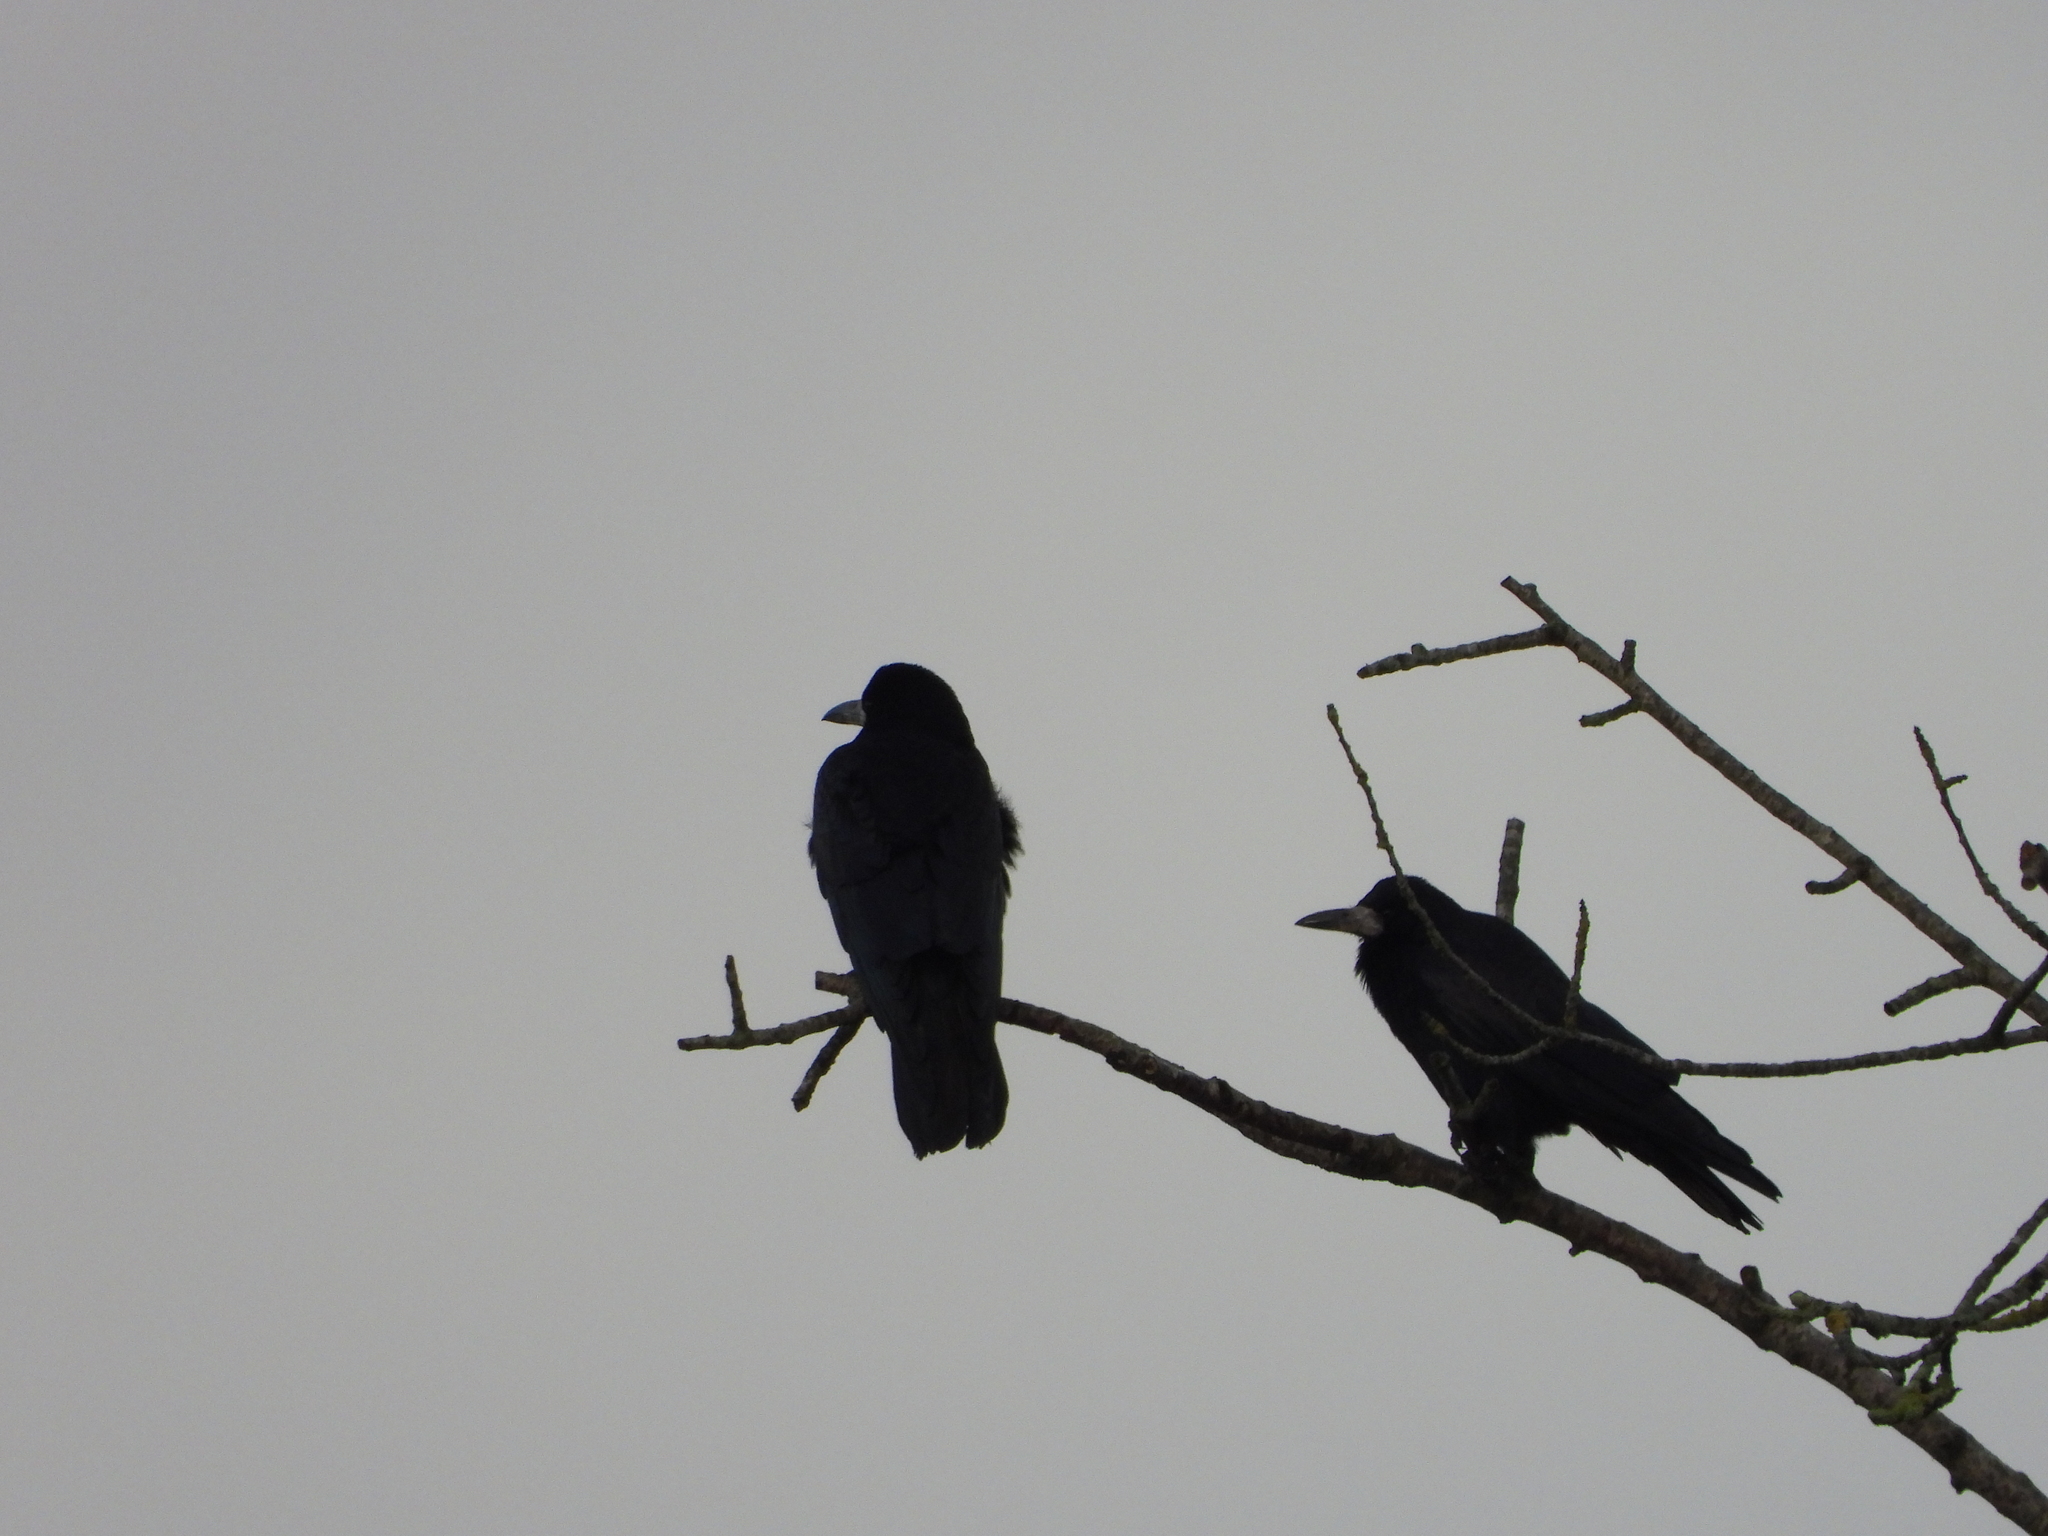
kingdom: Animalia
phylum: Chordata
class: Aves
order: Passeriformes
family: Corvidae
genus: Corvus
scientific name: Corvus frugilegus
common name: Rook
